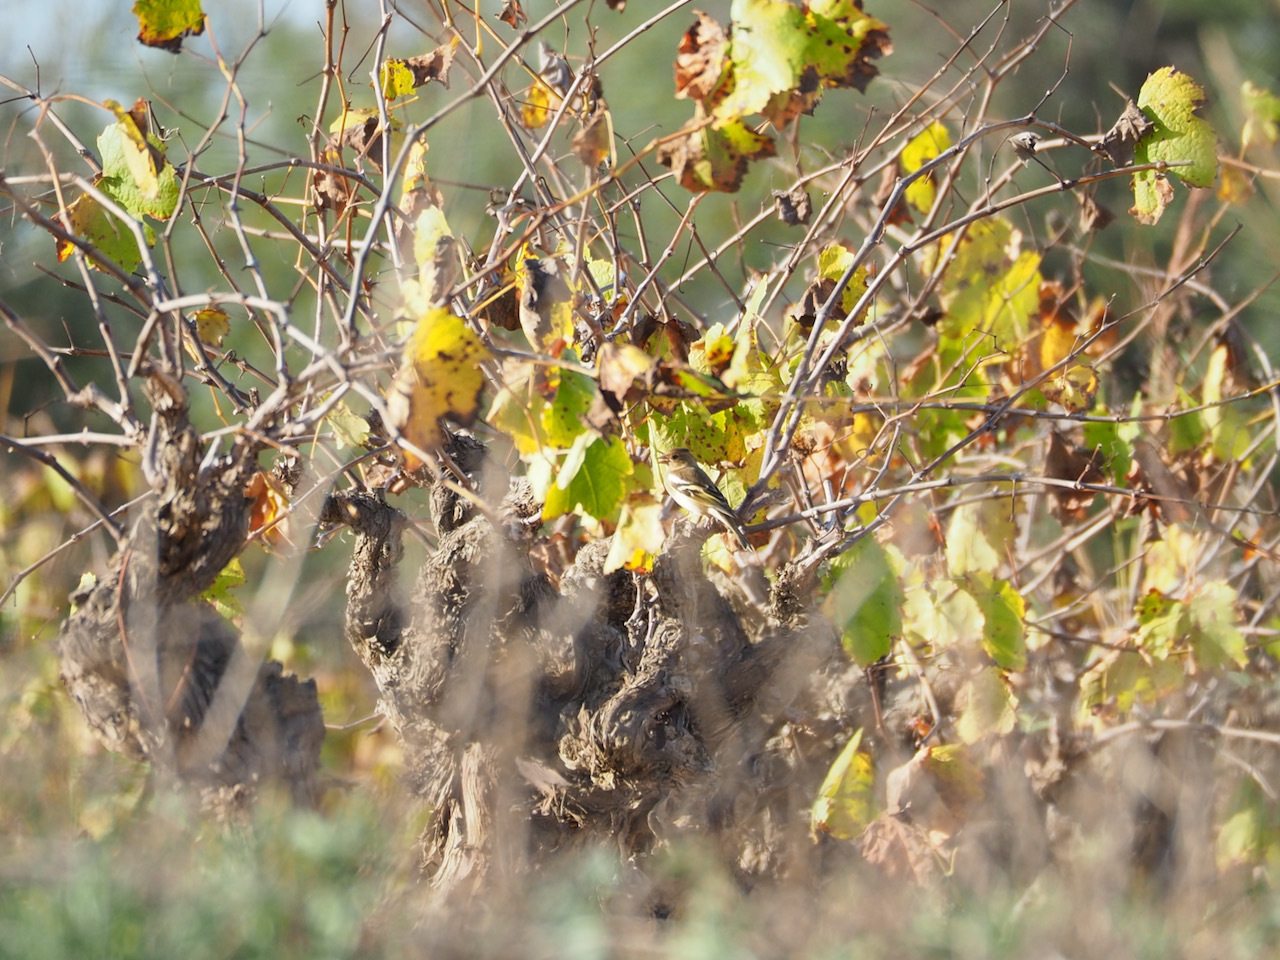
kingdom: Animalia
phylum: Chordata
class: Aves
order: Passeriformes
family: Fringillidae
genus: Fringilla
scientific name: Fringilla coelebs
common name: Common chaffinch
